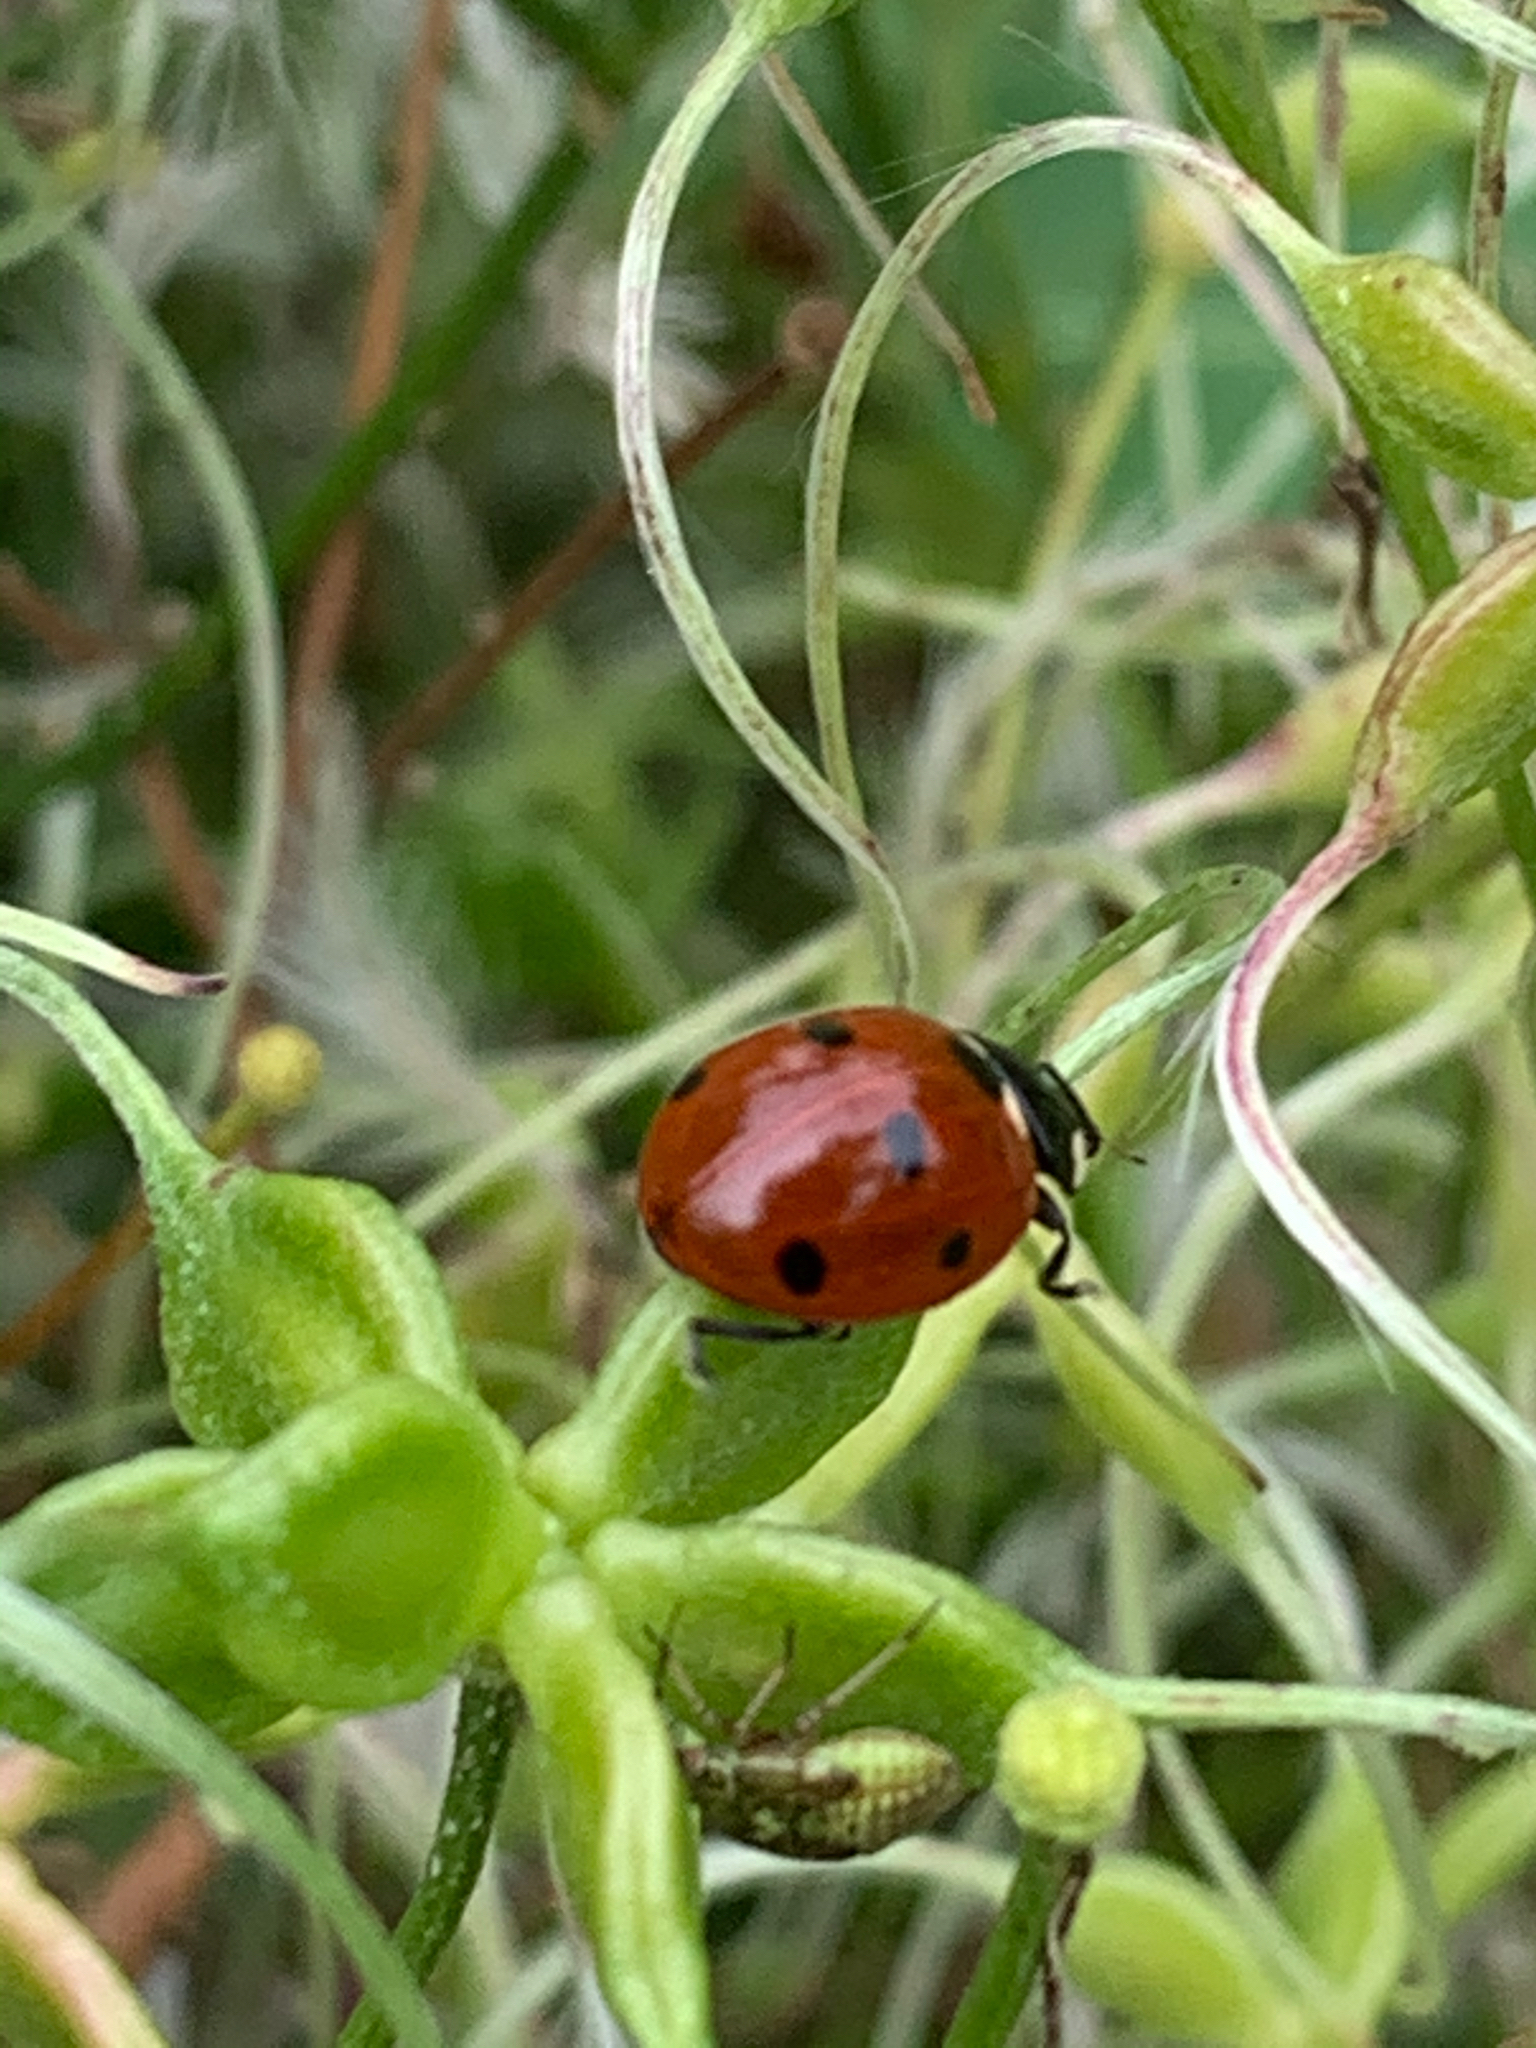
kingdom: Animalia
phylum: Arthropoda
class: Insecta
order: Coleoptera
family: Coccinellidae
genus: Coccinella
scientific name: Coccinella septempunctata
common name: Sevenspotted lady beetle
